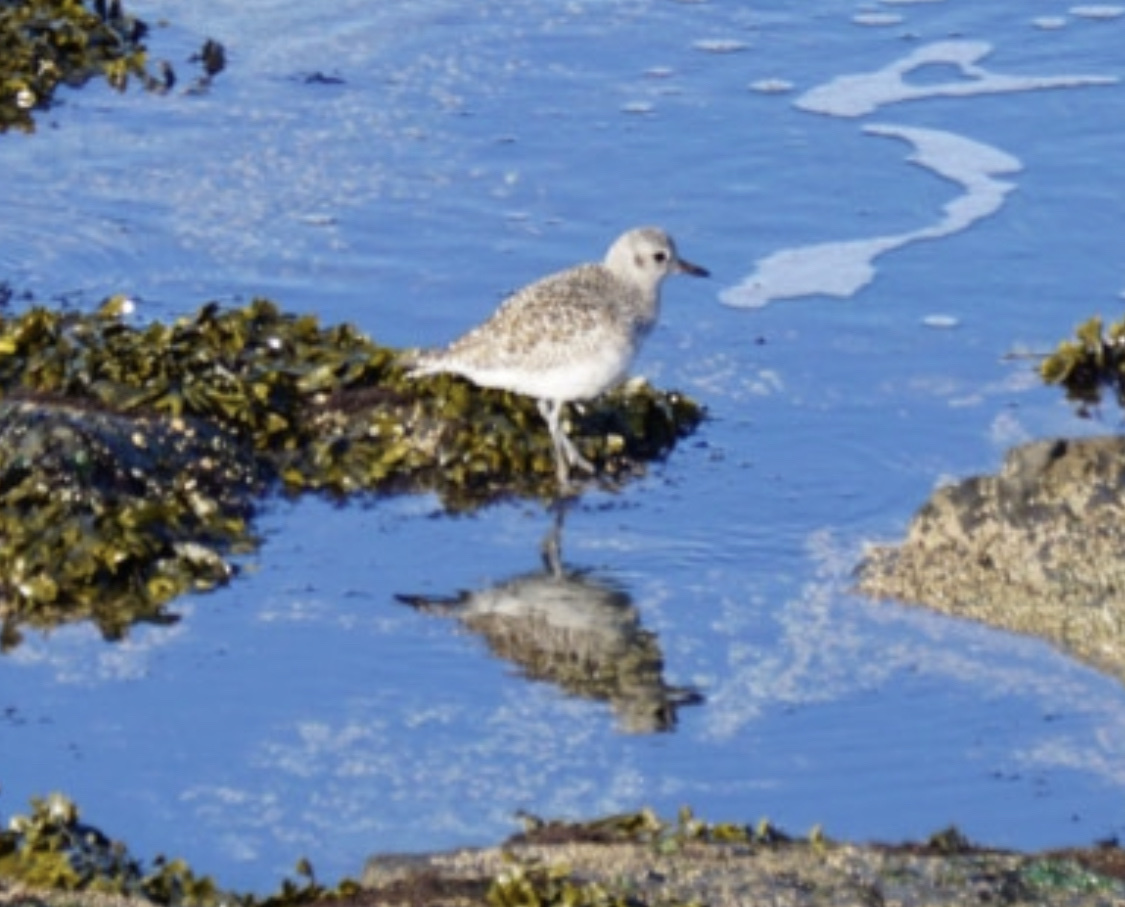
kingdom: Animalia
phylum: Chordata
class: Aves
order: Charadriiformes
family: Charadriidae
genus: Pluvialis
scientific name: Pluvialis squatarola
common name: Grey plover
